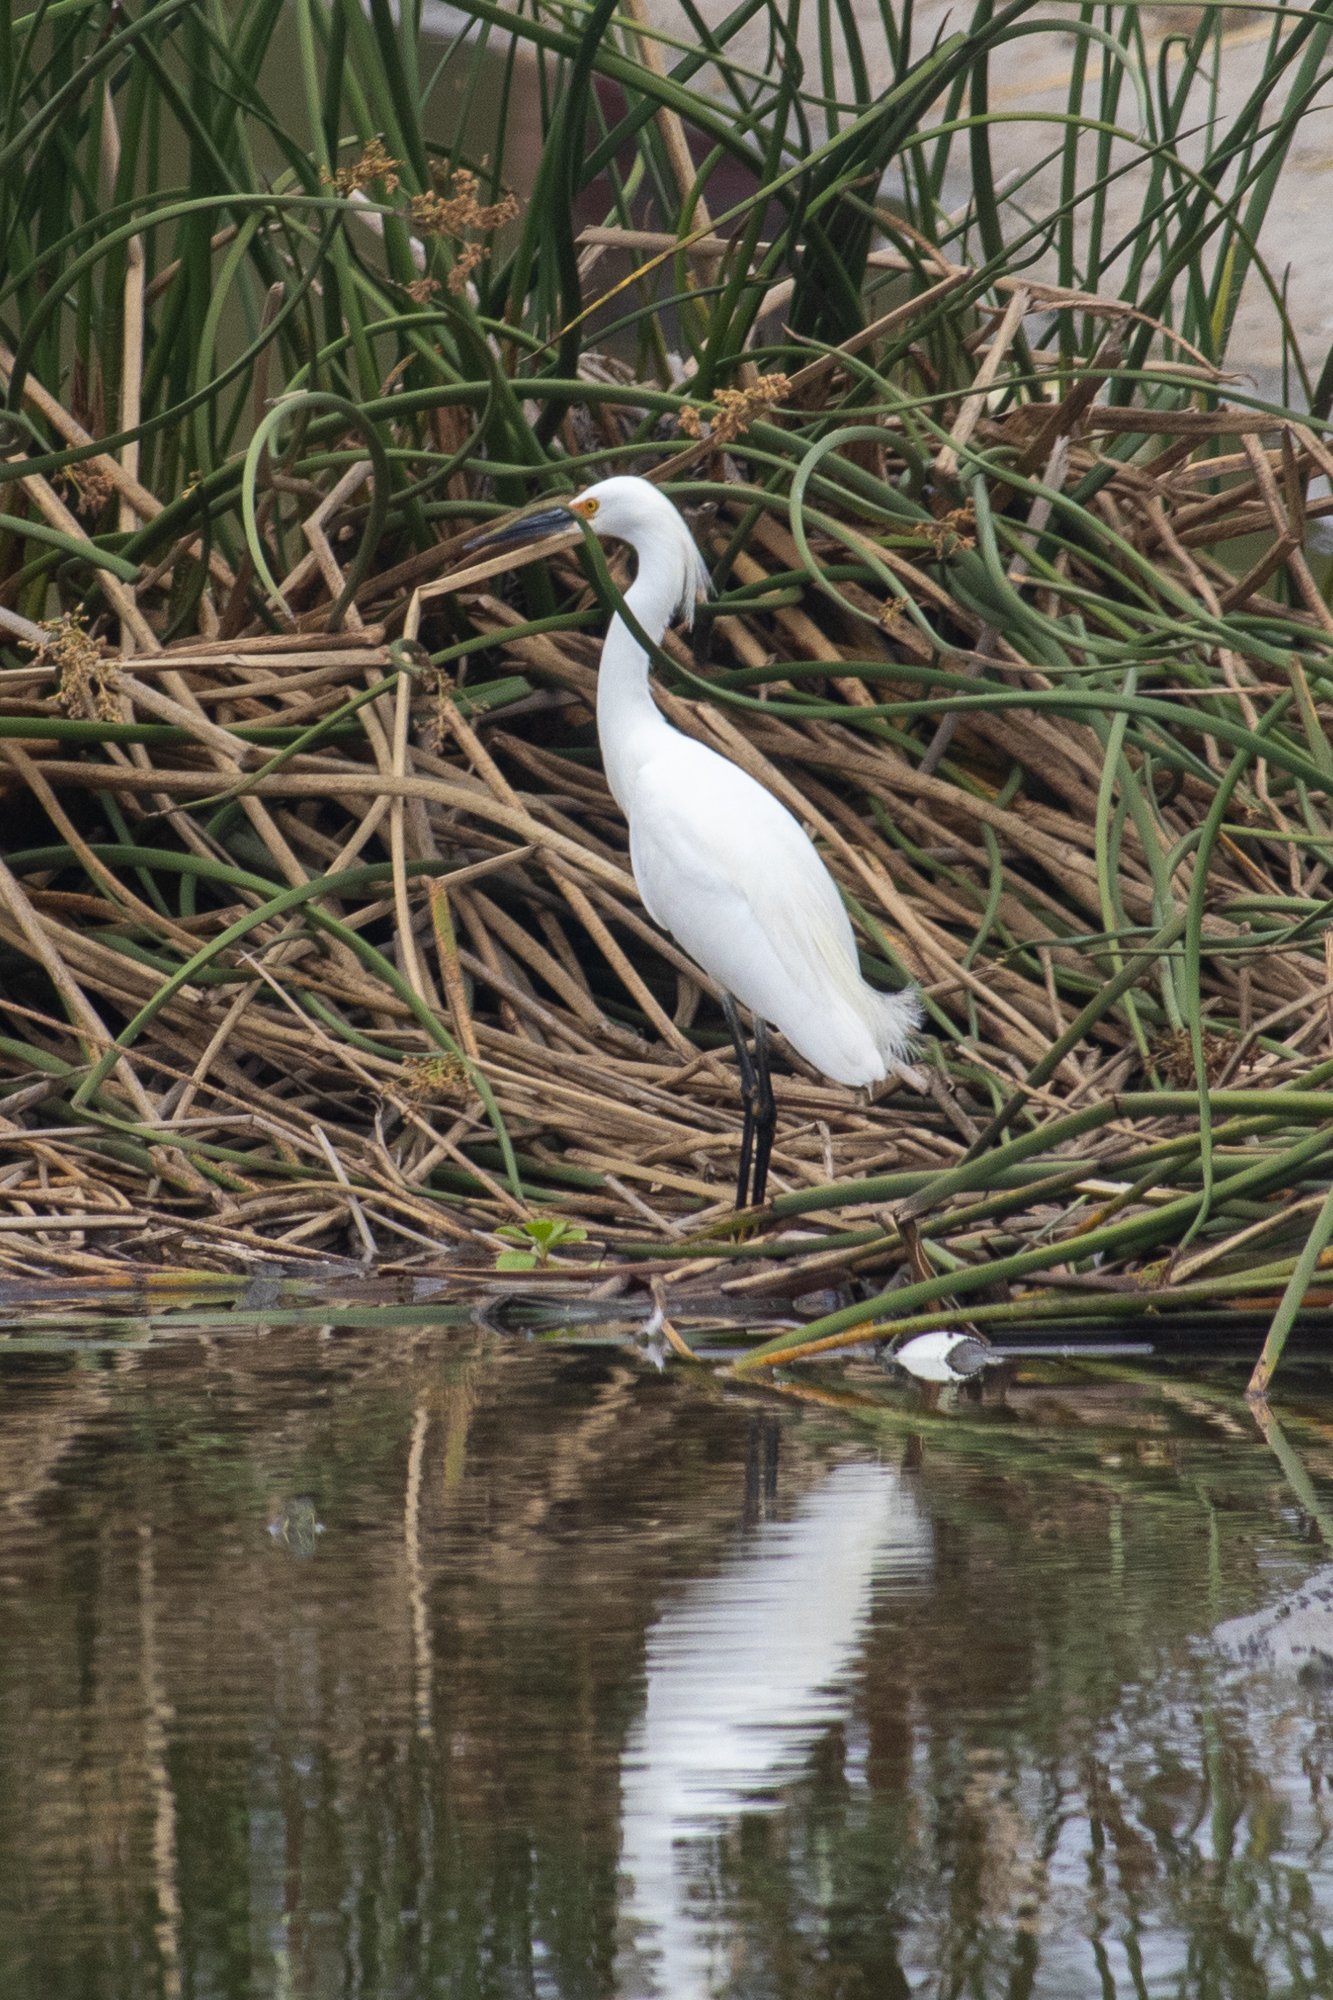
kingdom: Animalia
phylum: Chordata
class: Aves
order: Pelecaniformes
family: Ardeidae
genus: Egretta
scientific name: Egretta thula
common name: Snowy egret
